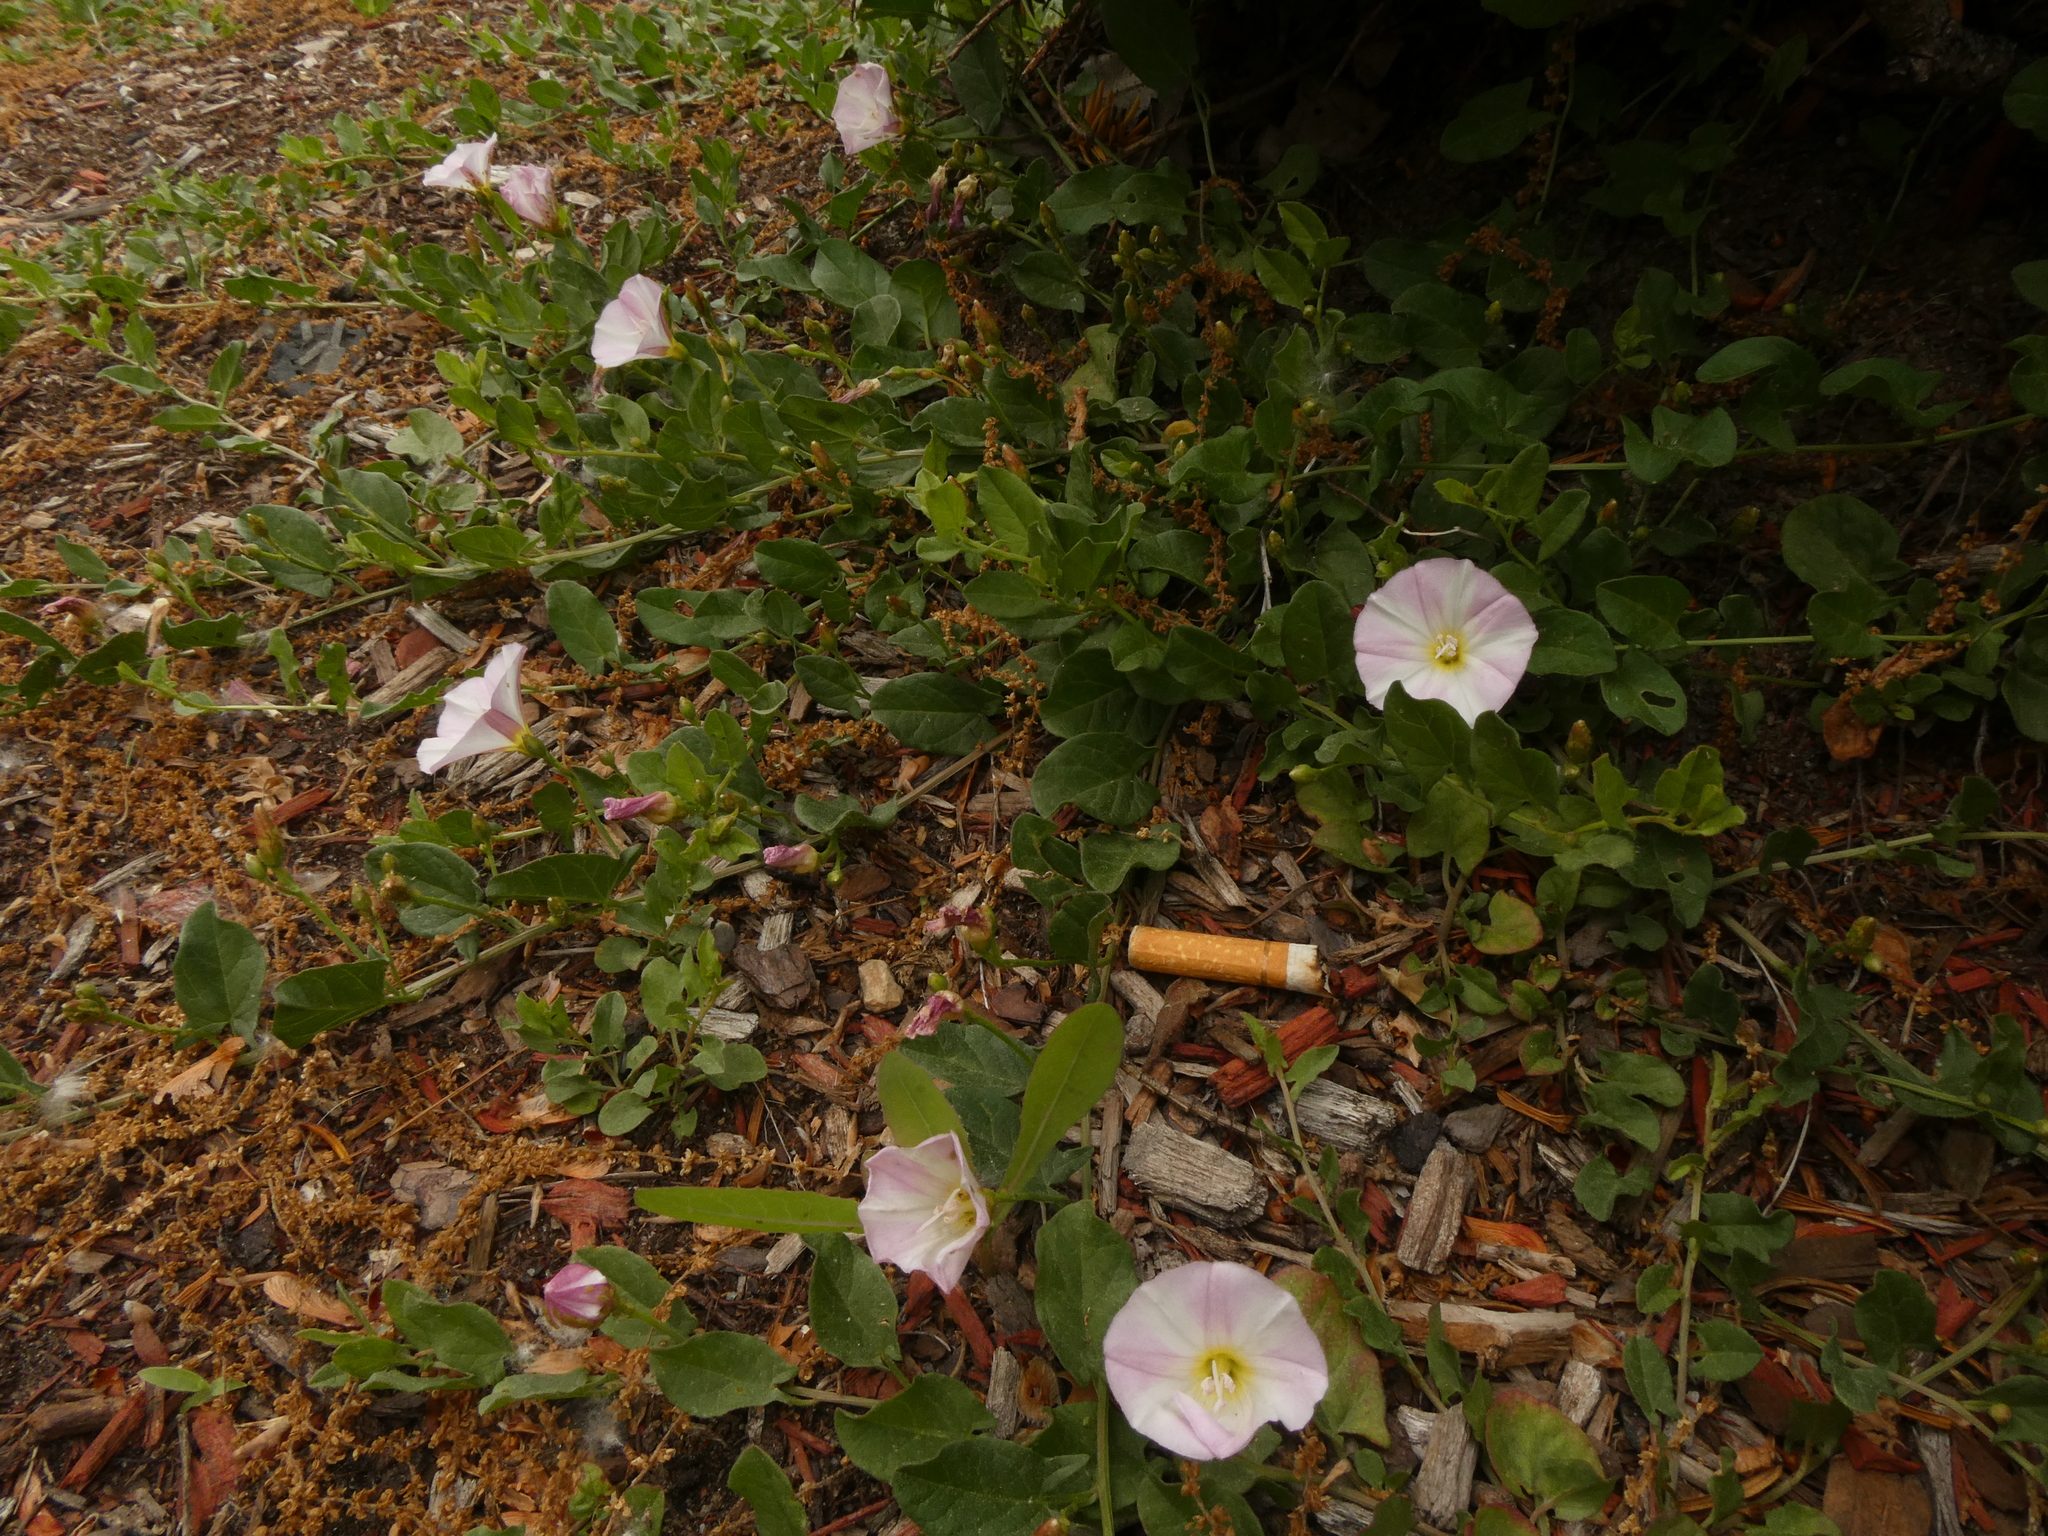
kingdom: Plantae
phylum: Tracheophyta
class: Magnoliopsida
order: Solanales
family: Convolvulaceae
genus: Convolvulus
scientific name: Convolvulus arvensis
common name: Field bindweed
